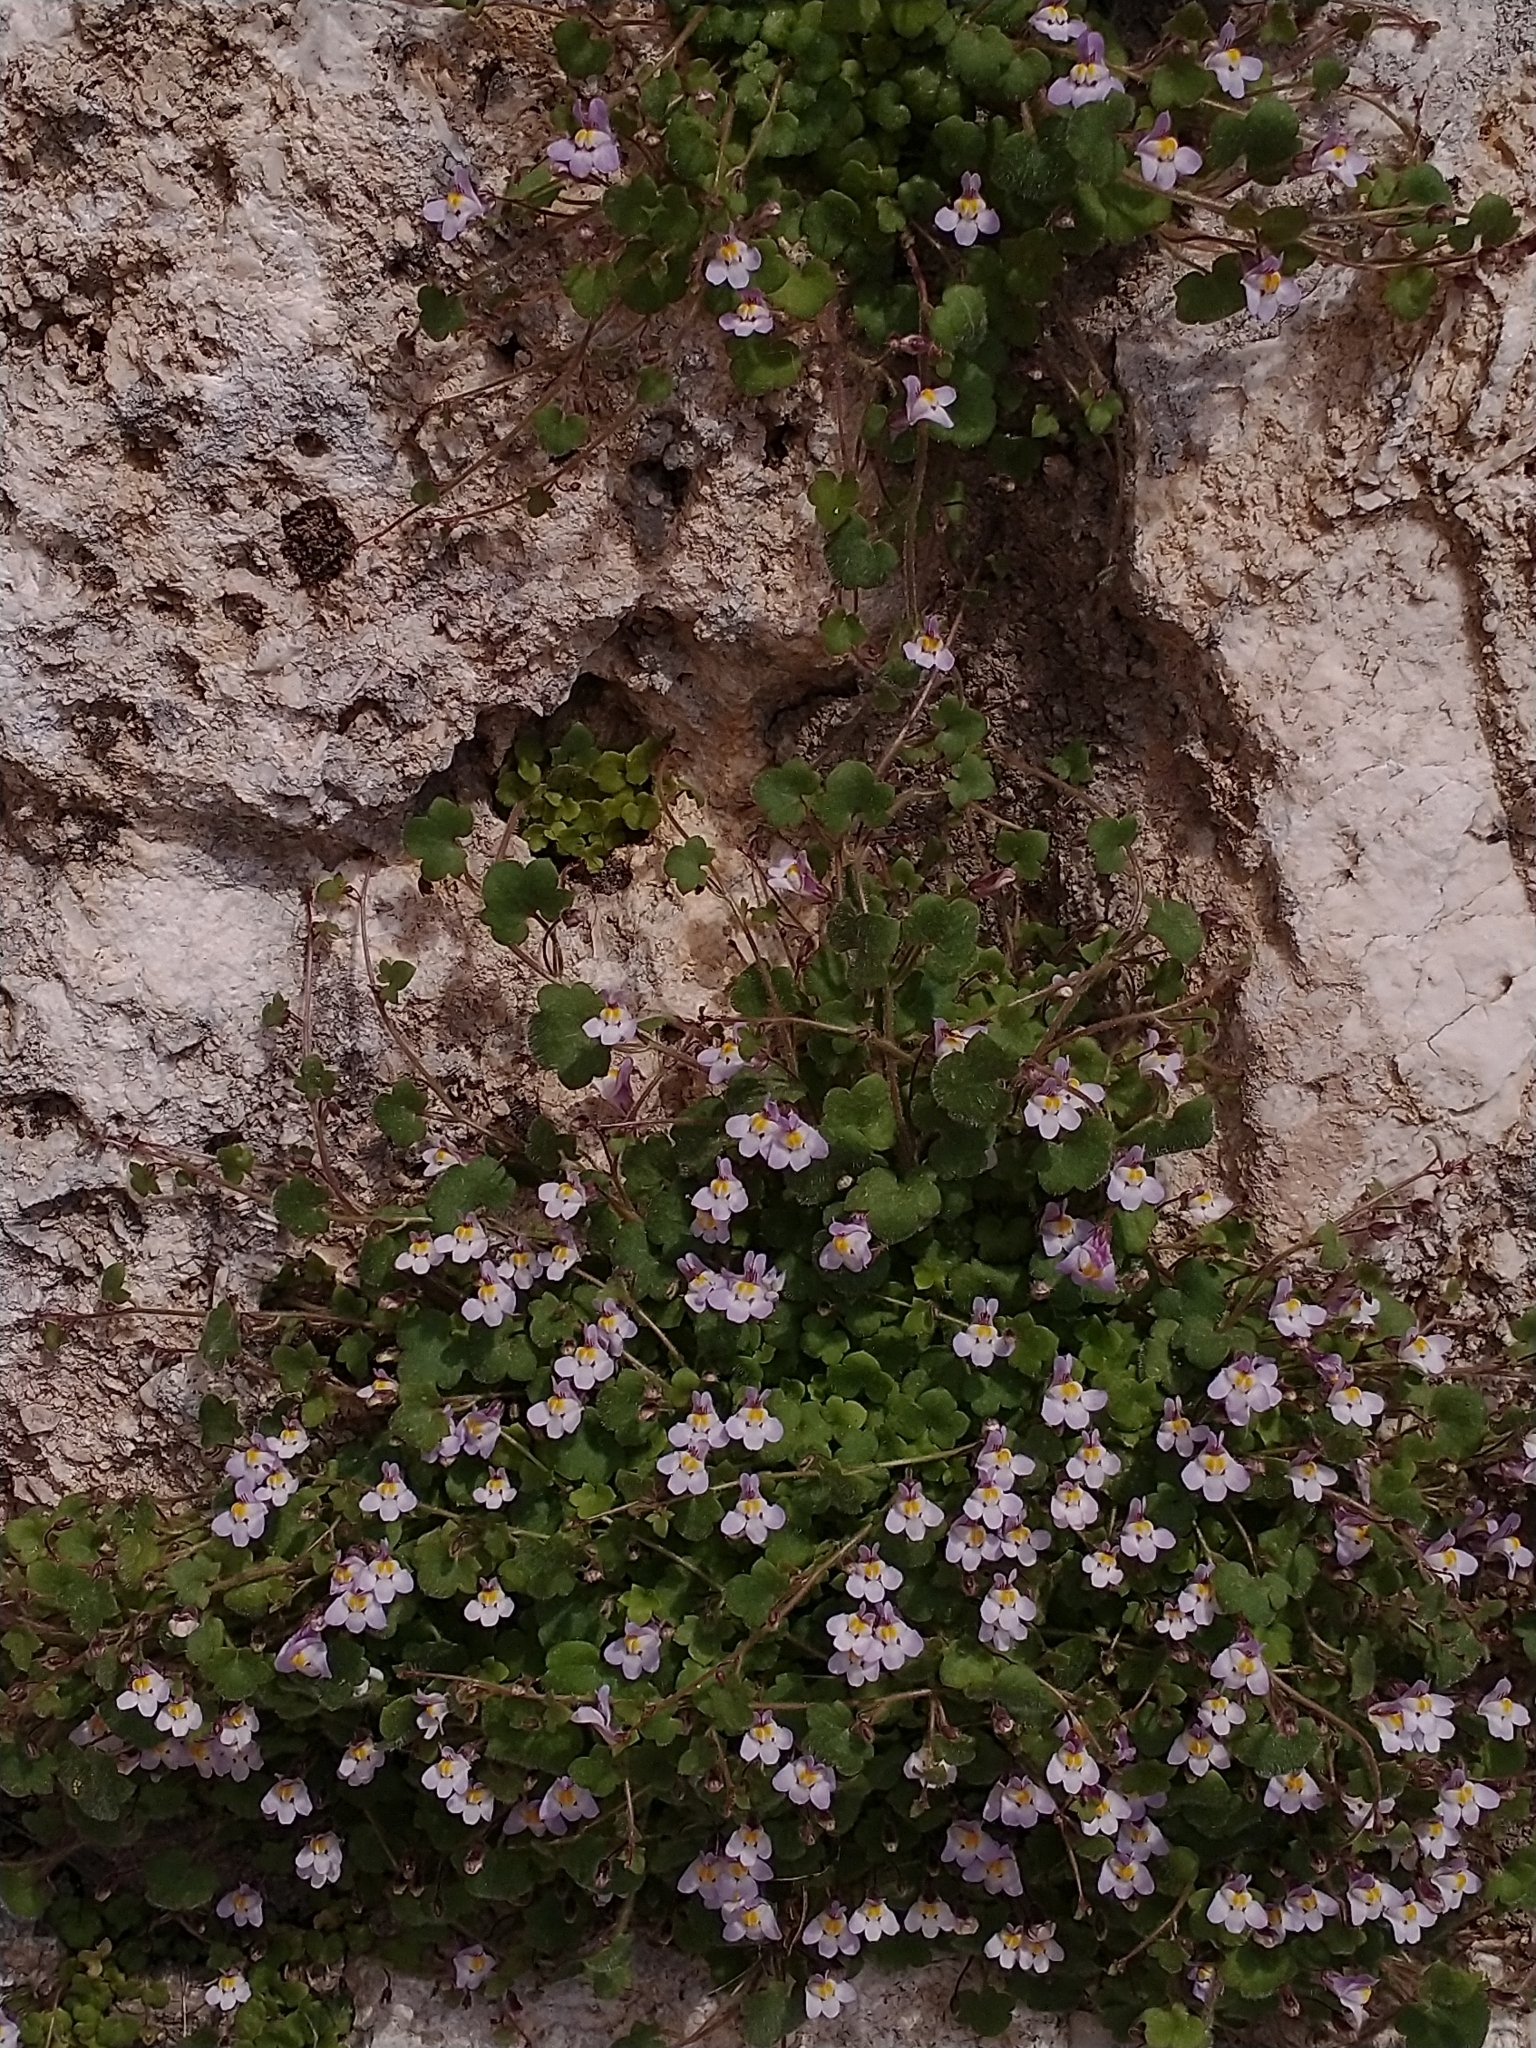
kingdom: Plantae
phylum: Tracheophyta
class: Magnoliopsida
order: Lamiales
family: Plantaginaceae
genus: Cymbalaria
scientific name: Cymbalaria minor
